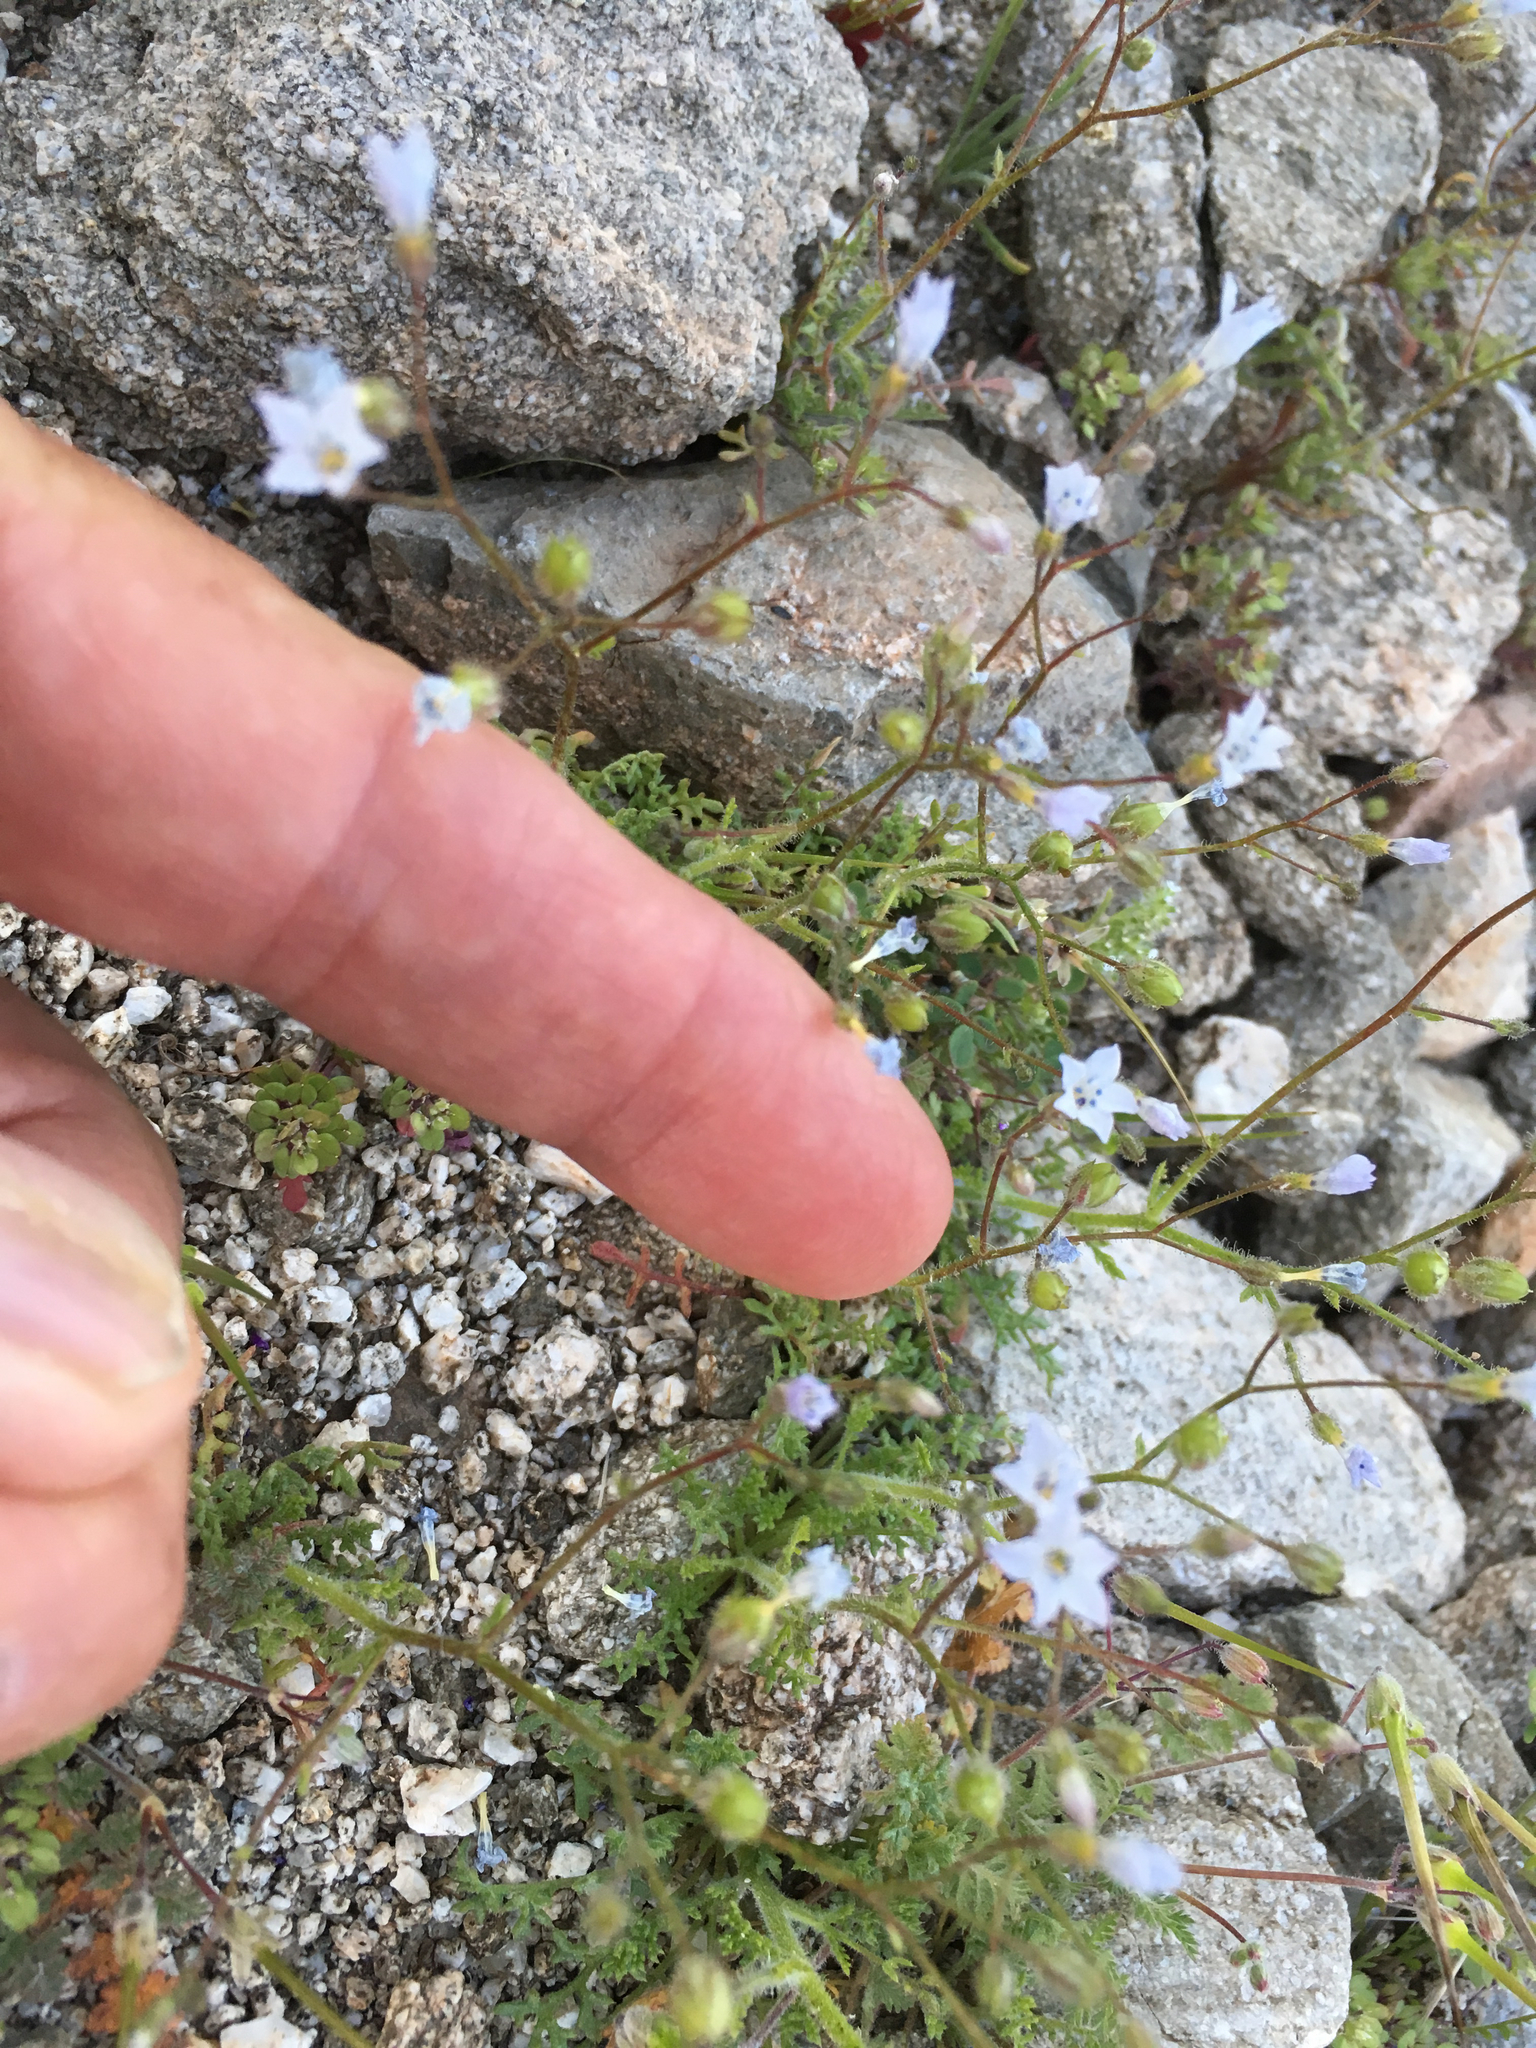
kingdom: Plantae
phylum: Tracheophyta
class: Magnoliopsida
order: Ericales
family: Polemoniaceae
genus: Gilia
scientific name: Gilia stellata
